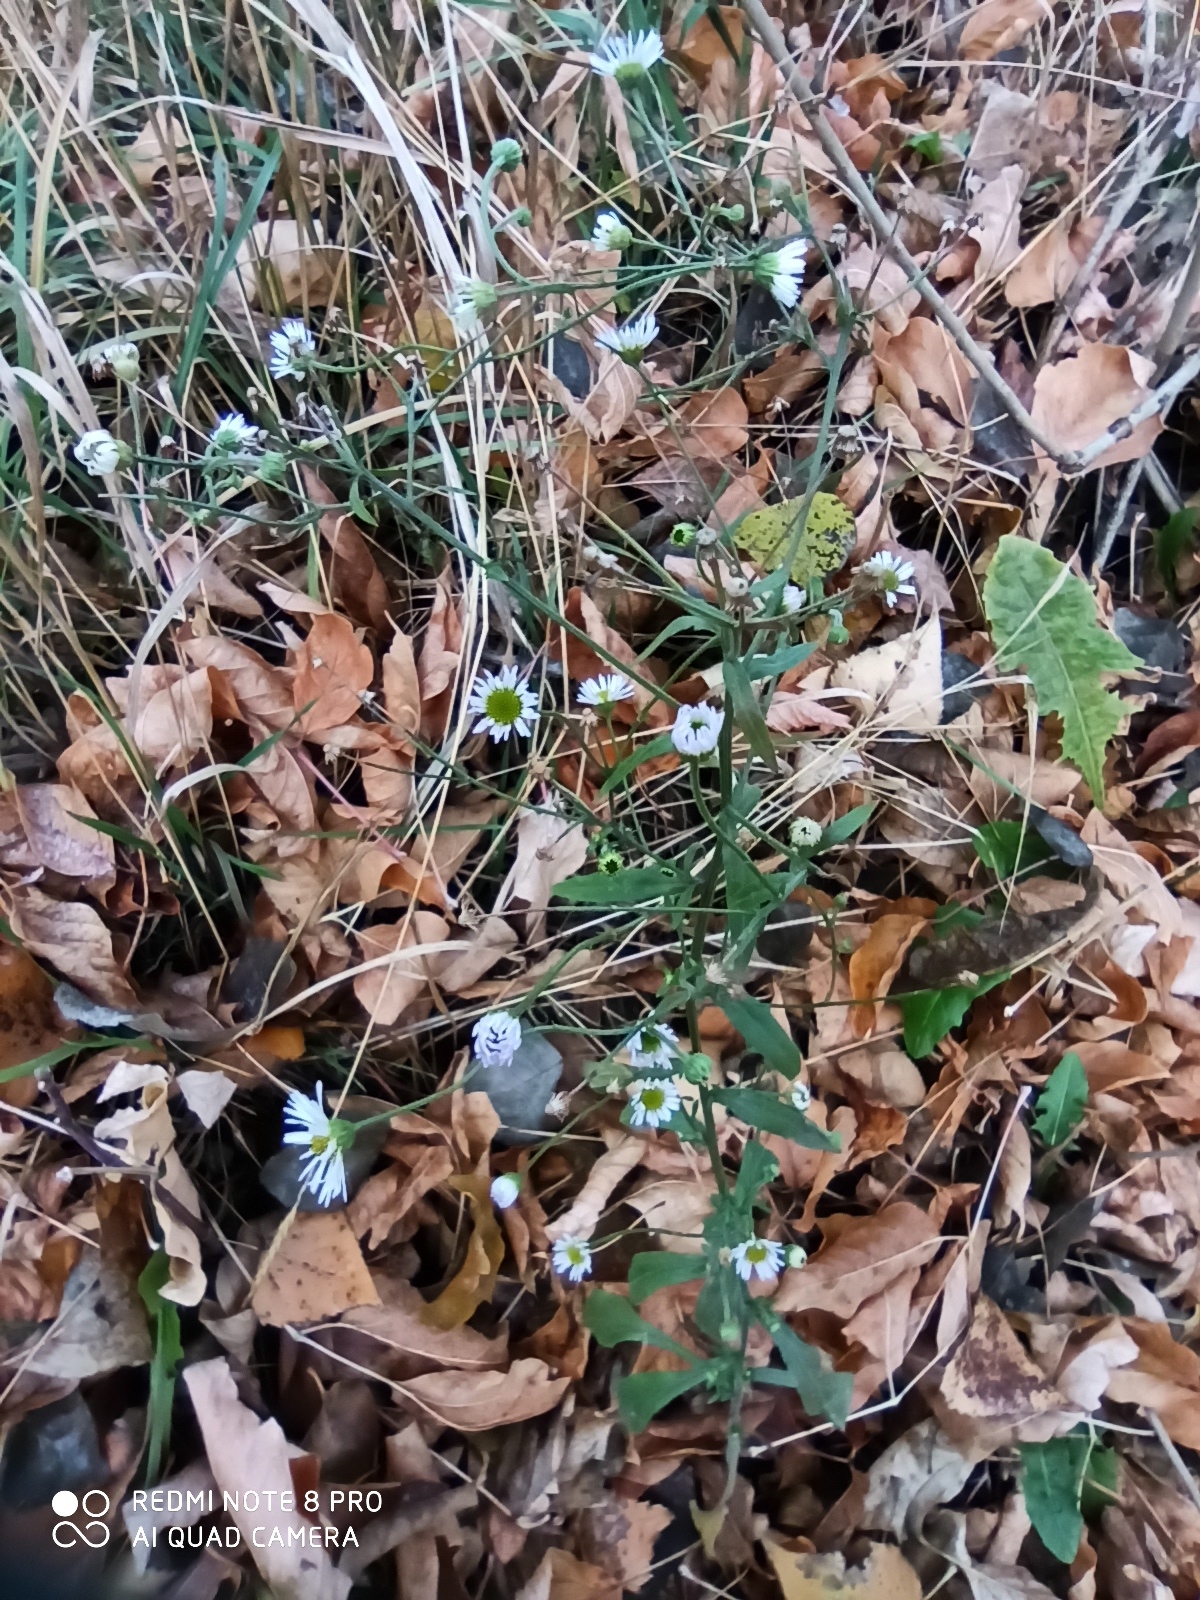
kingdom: Plantae
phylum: Tracheophyta
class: Magnoliopsida
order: Asterales
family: Asteraceae
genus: Erigeron
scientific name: Erigeron annuus
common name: Tall fleabane
